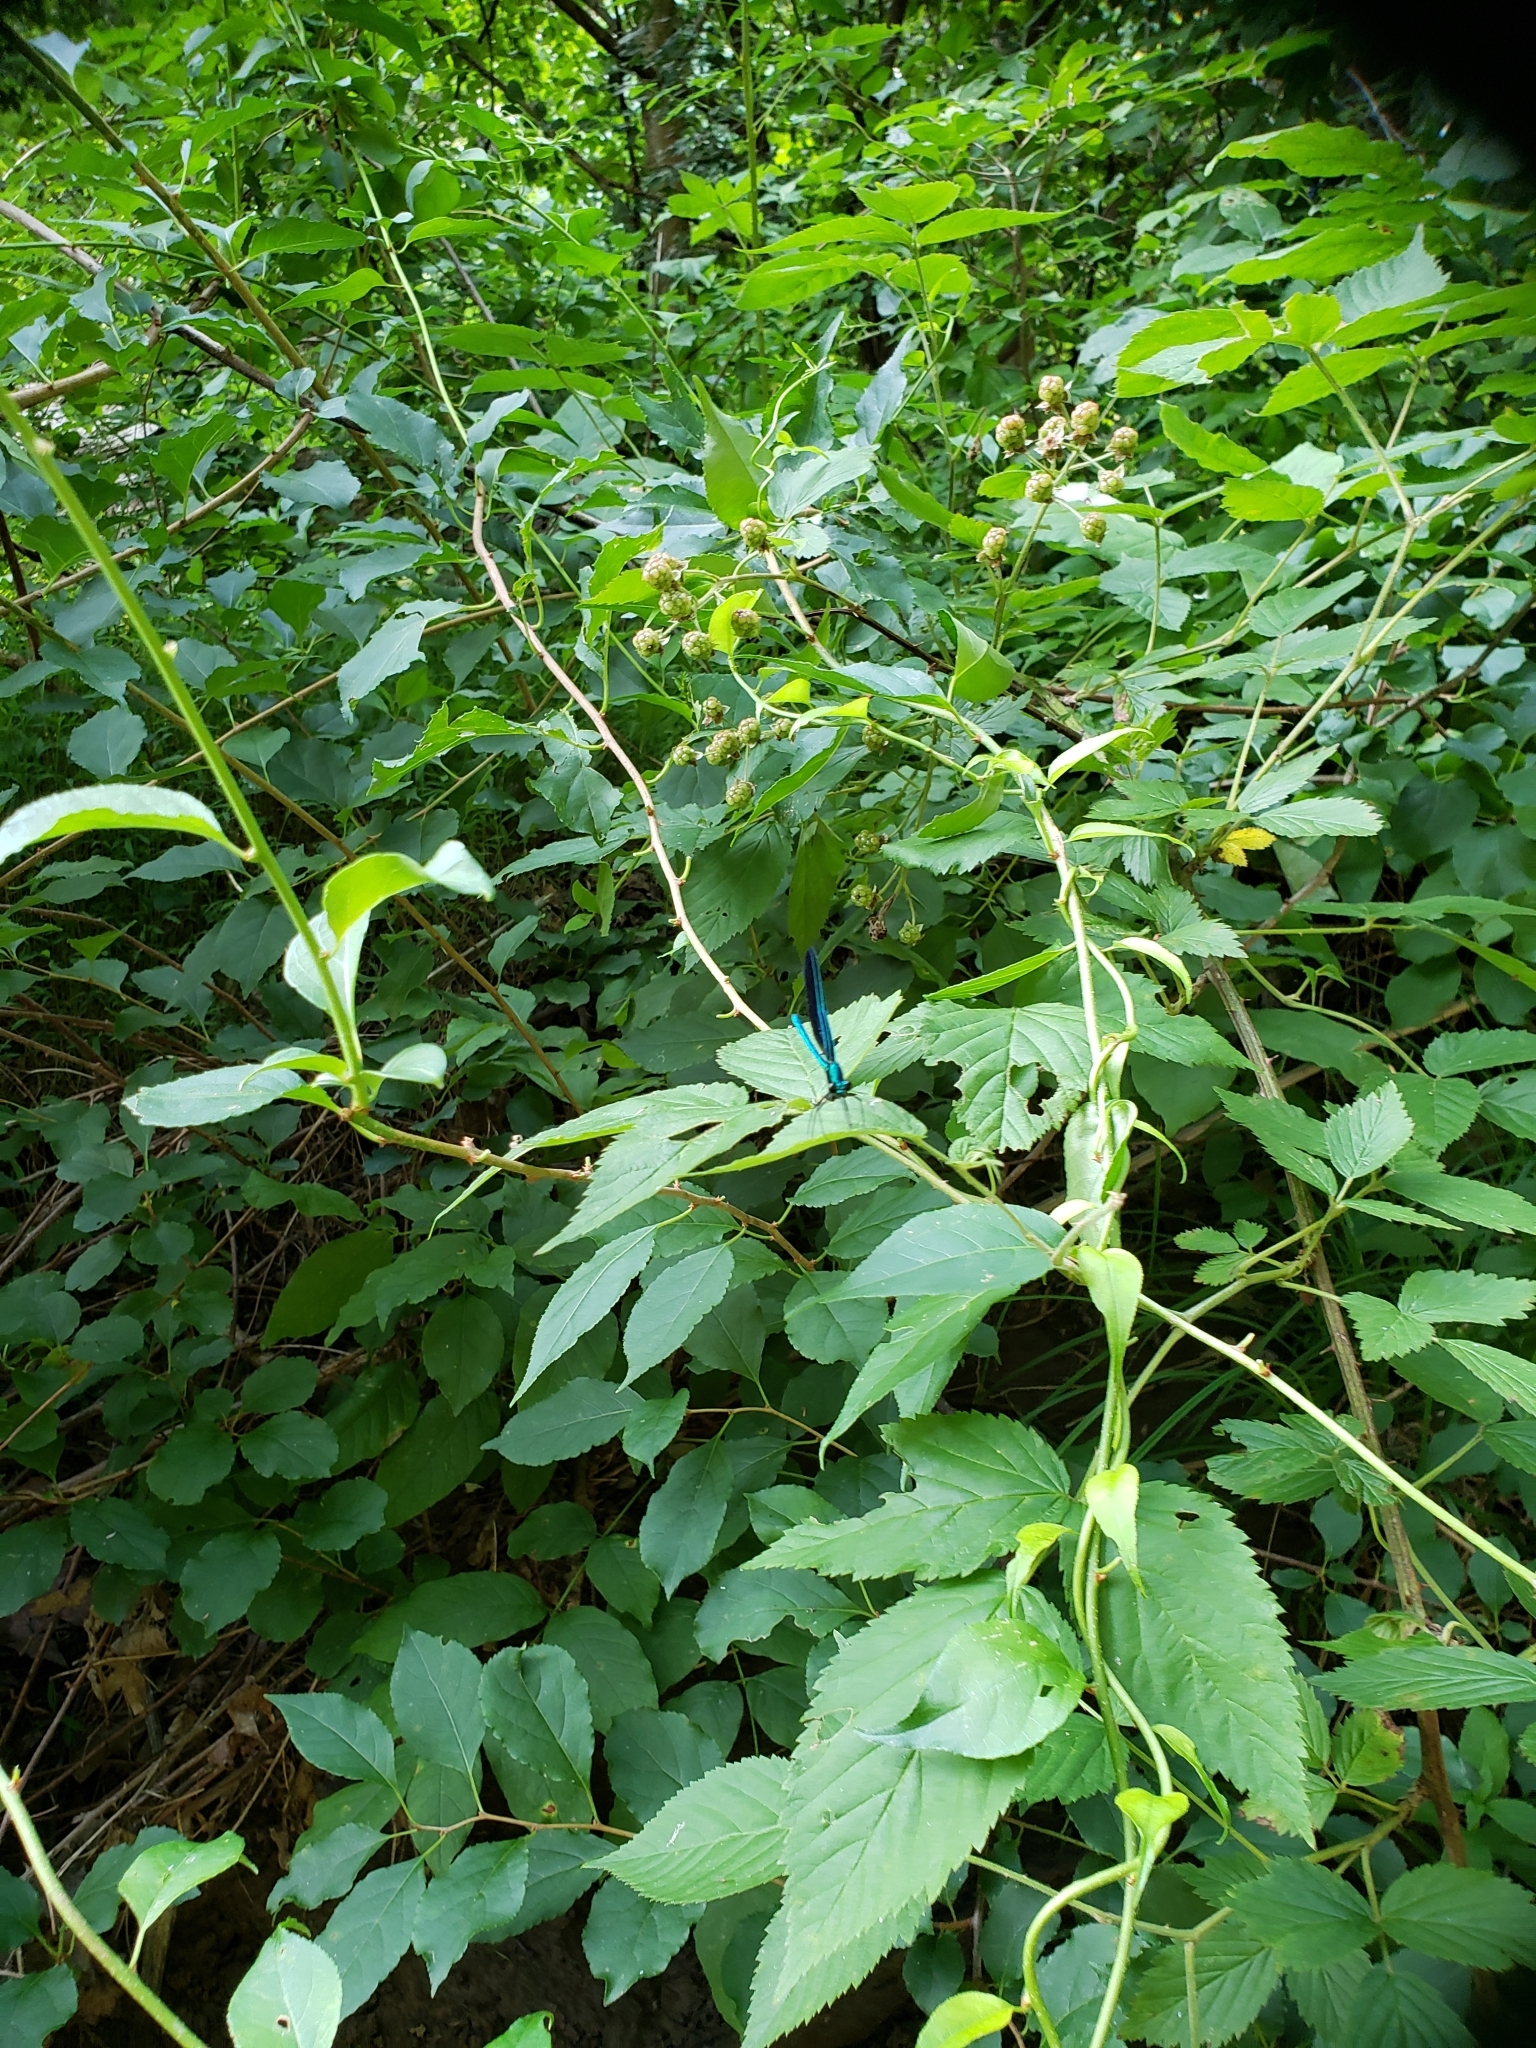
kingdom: Animalia
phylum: Arthropoda
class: Insecta
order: Odonata
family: Calopterygidae
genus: Calopteryx
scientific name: Calopteryx maculata
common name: Ebony jewelwing
